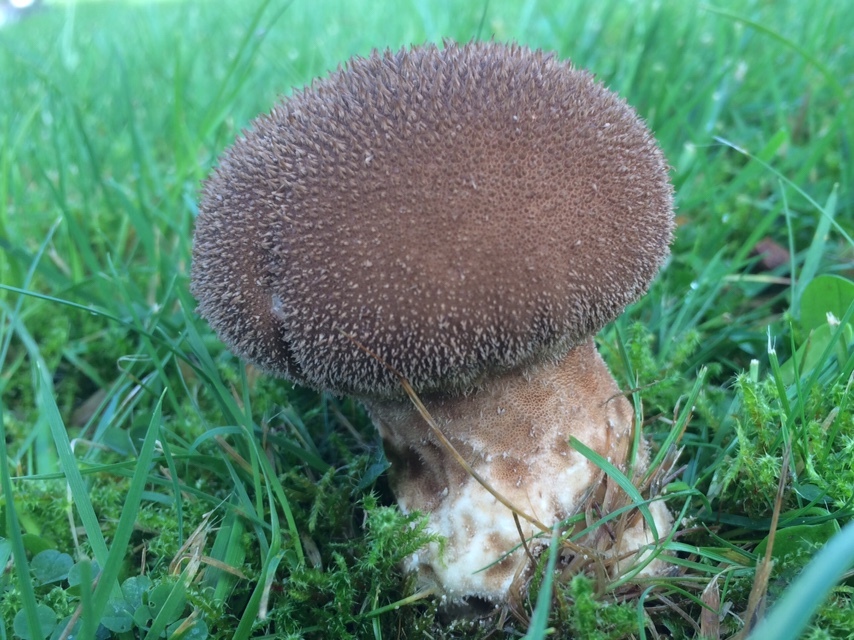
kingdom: Fungi
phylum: Basidiomycota
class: Agaricomycetes
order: Agaricales
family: Lycoperdaceae
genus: Lycoperdon
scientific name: Lycoperdon nigrescens
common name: Blackish puffball
